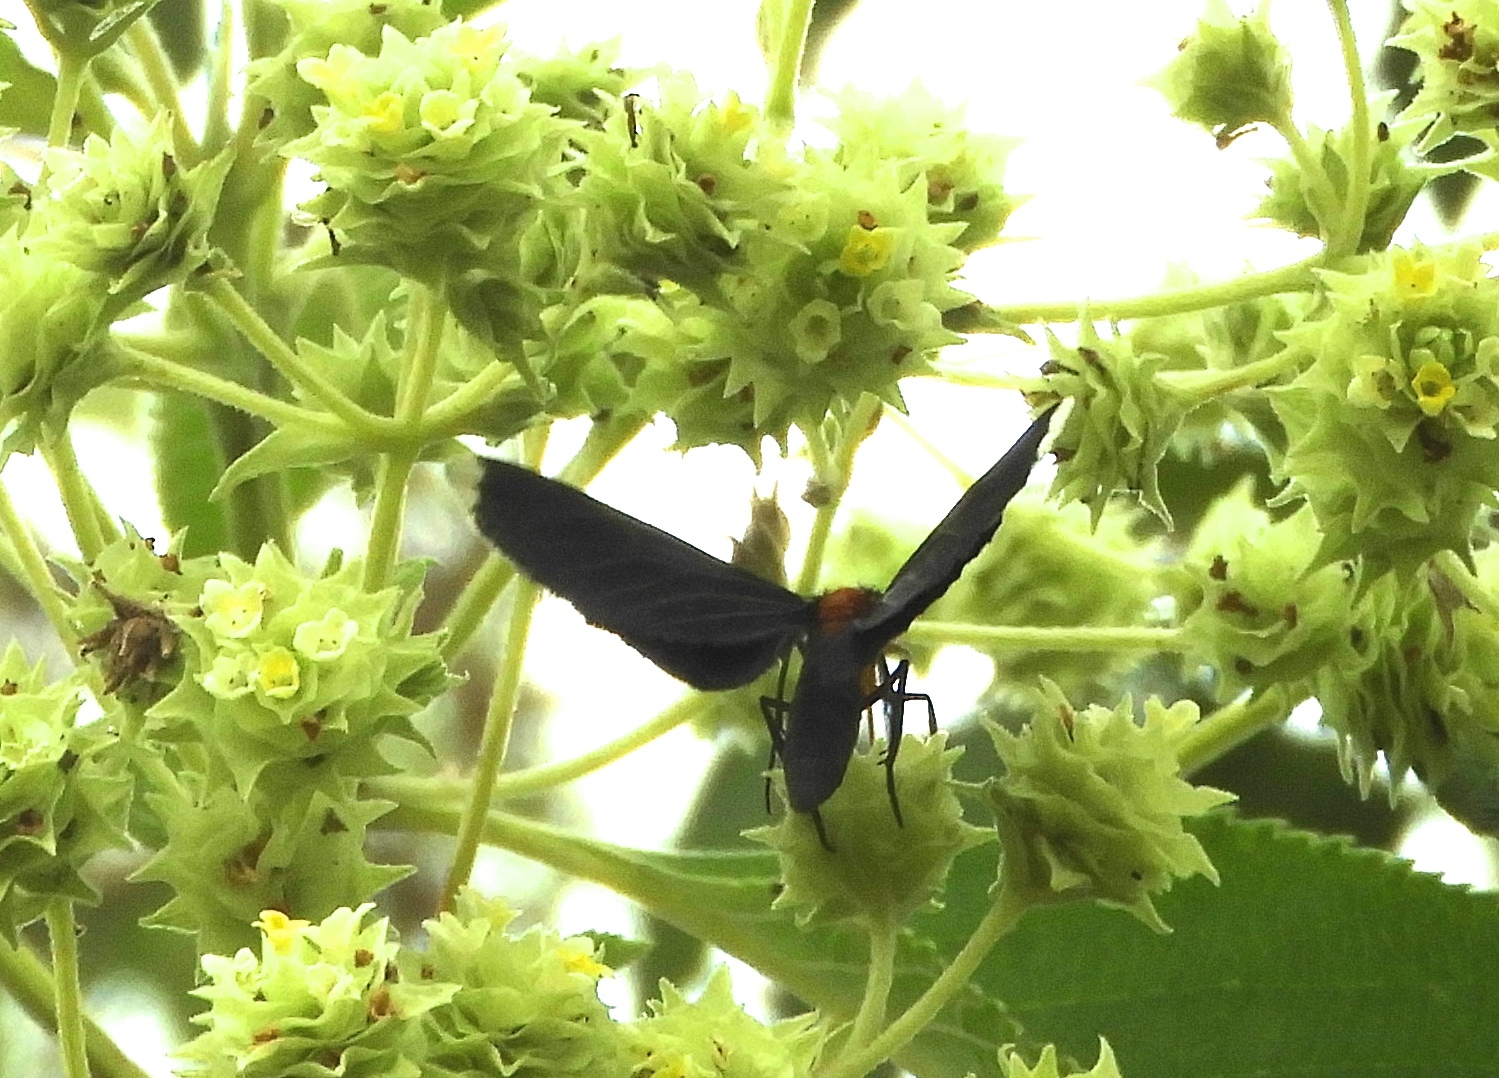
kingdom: Animalia
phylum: Arthropoda
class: Insecta
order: Lepidoptera
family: Geometridae
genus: Melanchroia
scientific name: Melanchroia chephise
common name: White-tipped black
